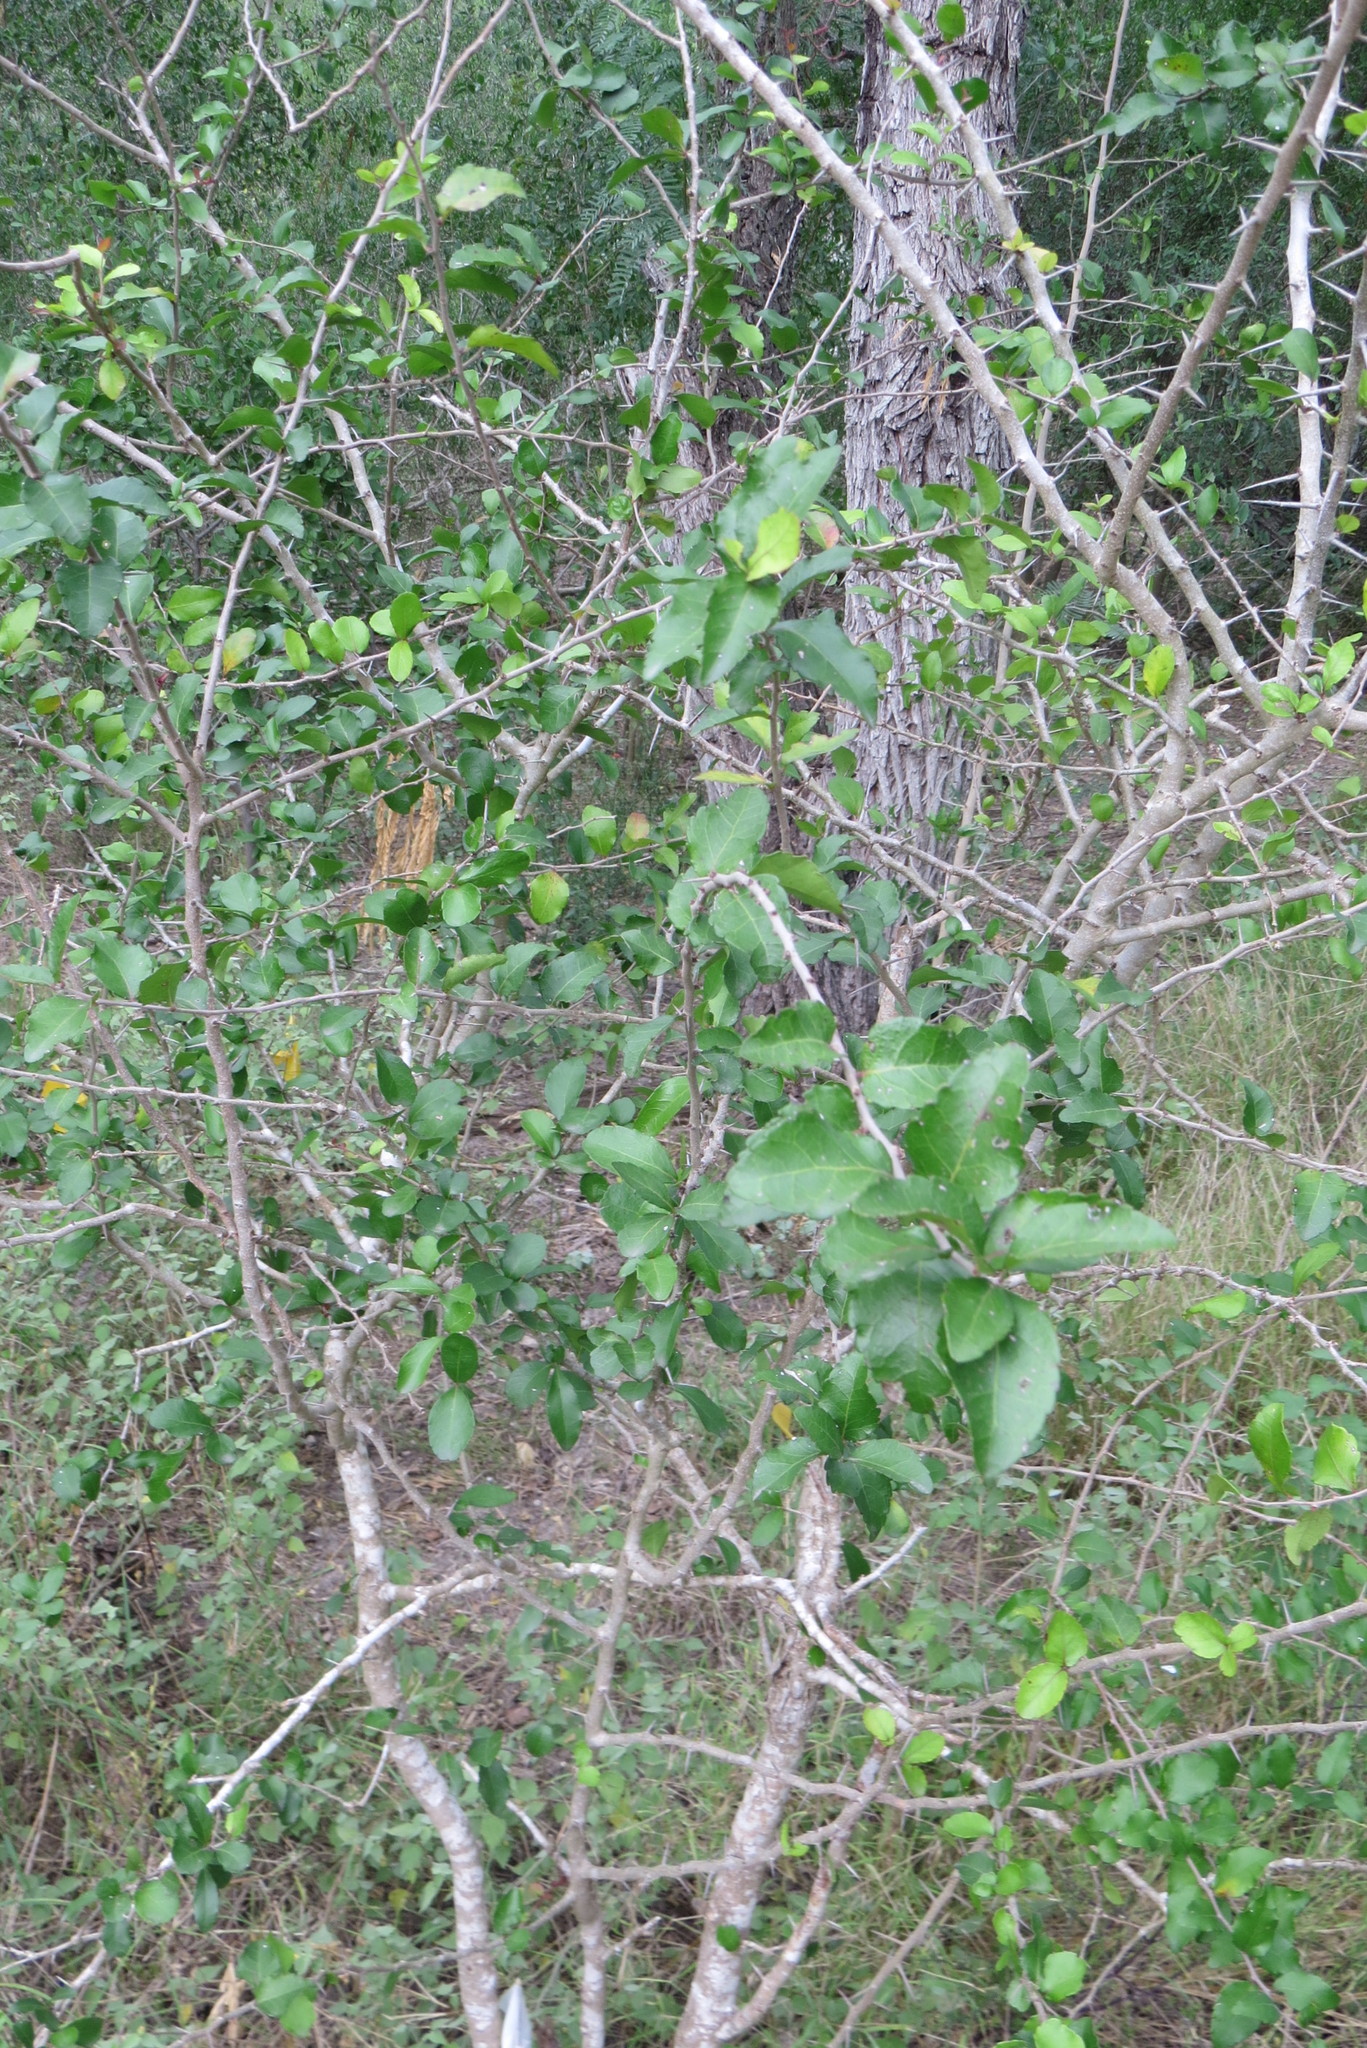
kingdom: Plantae
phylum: Tracheophyta
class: Magnoliopsida
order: Malpighiales
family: Salicaceae
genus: Xylosma
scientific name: Xylosma flexuosa
